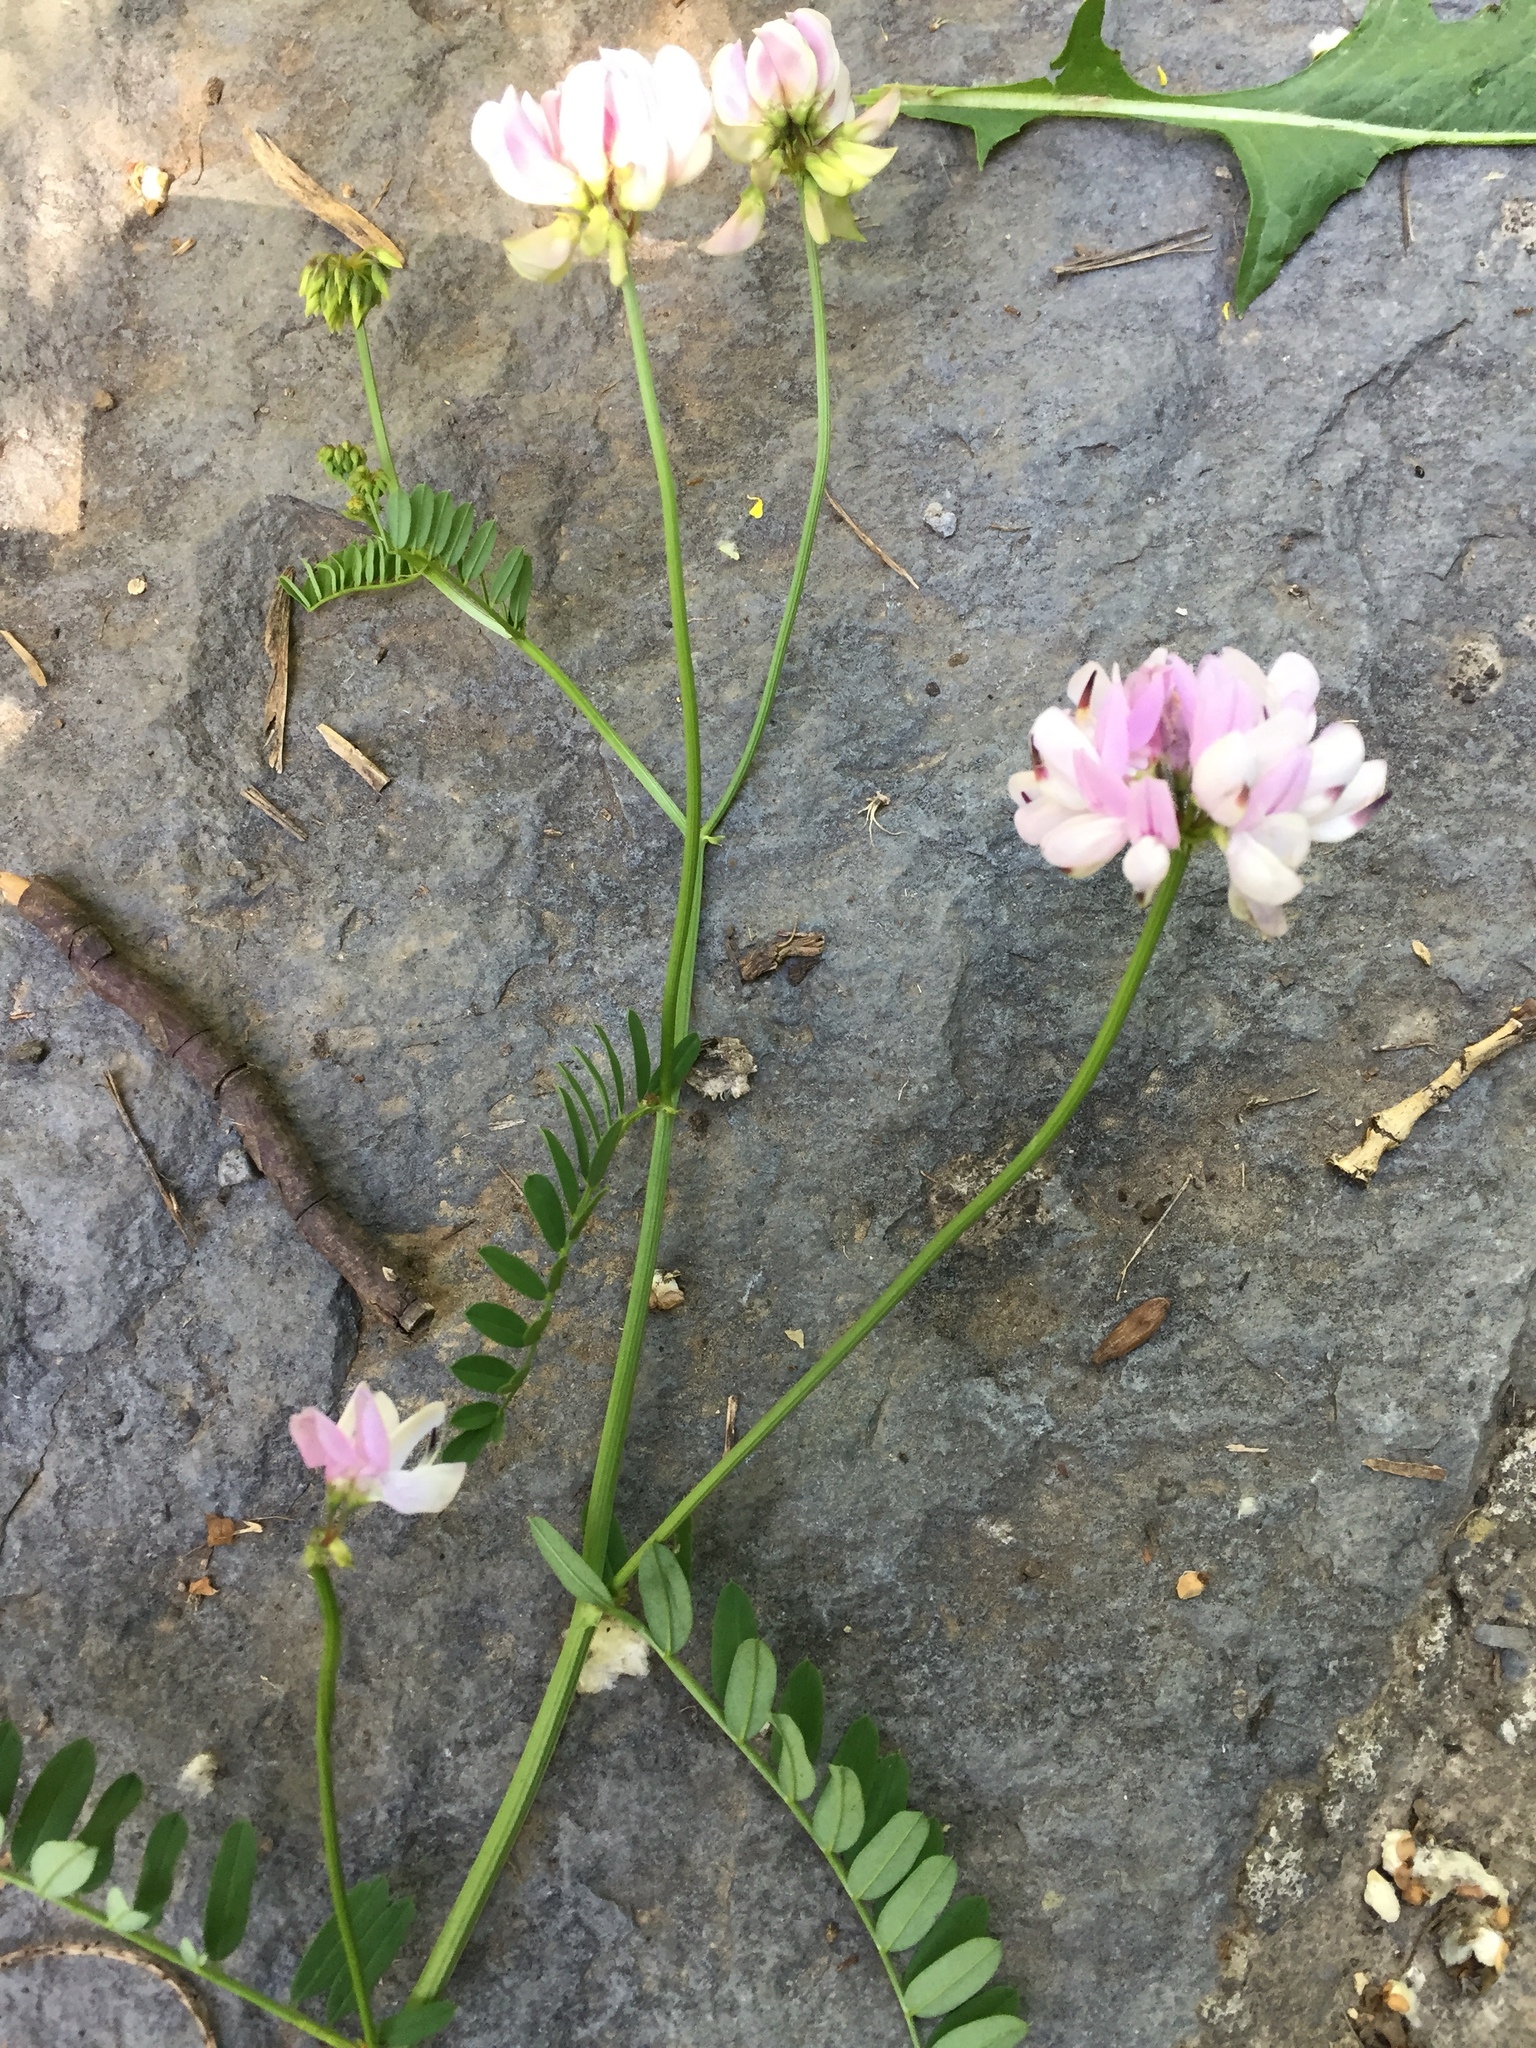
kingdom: Plantae
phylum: Tracheophyta
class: Magnoliopsida
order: Fabales
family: Fabaceae
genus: Coronilla
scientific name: Coronilla varia
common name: Crownvetch
